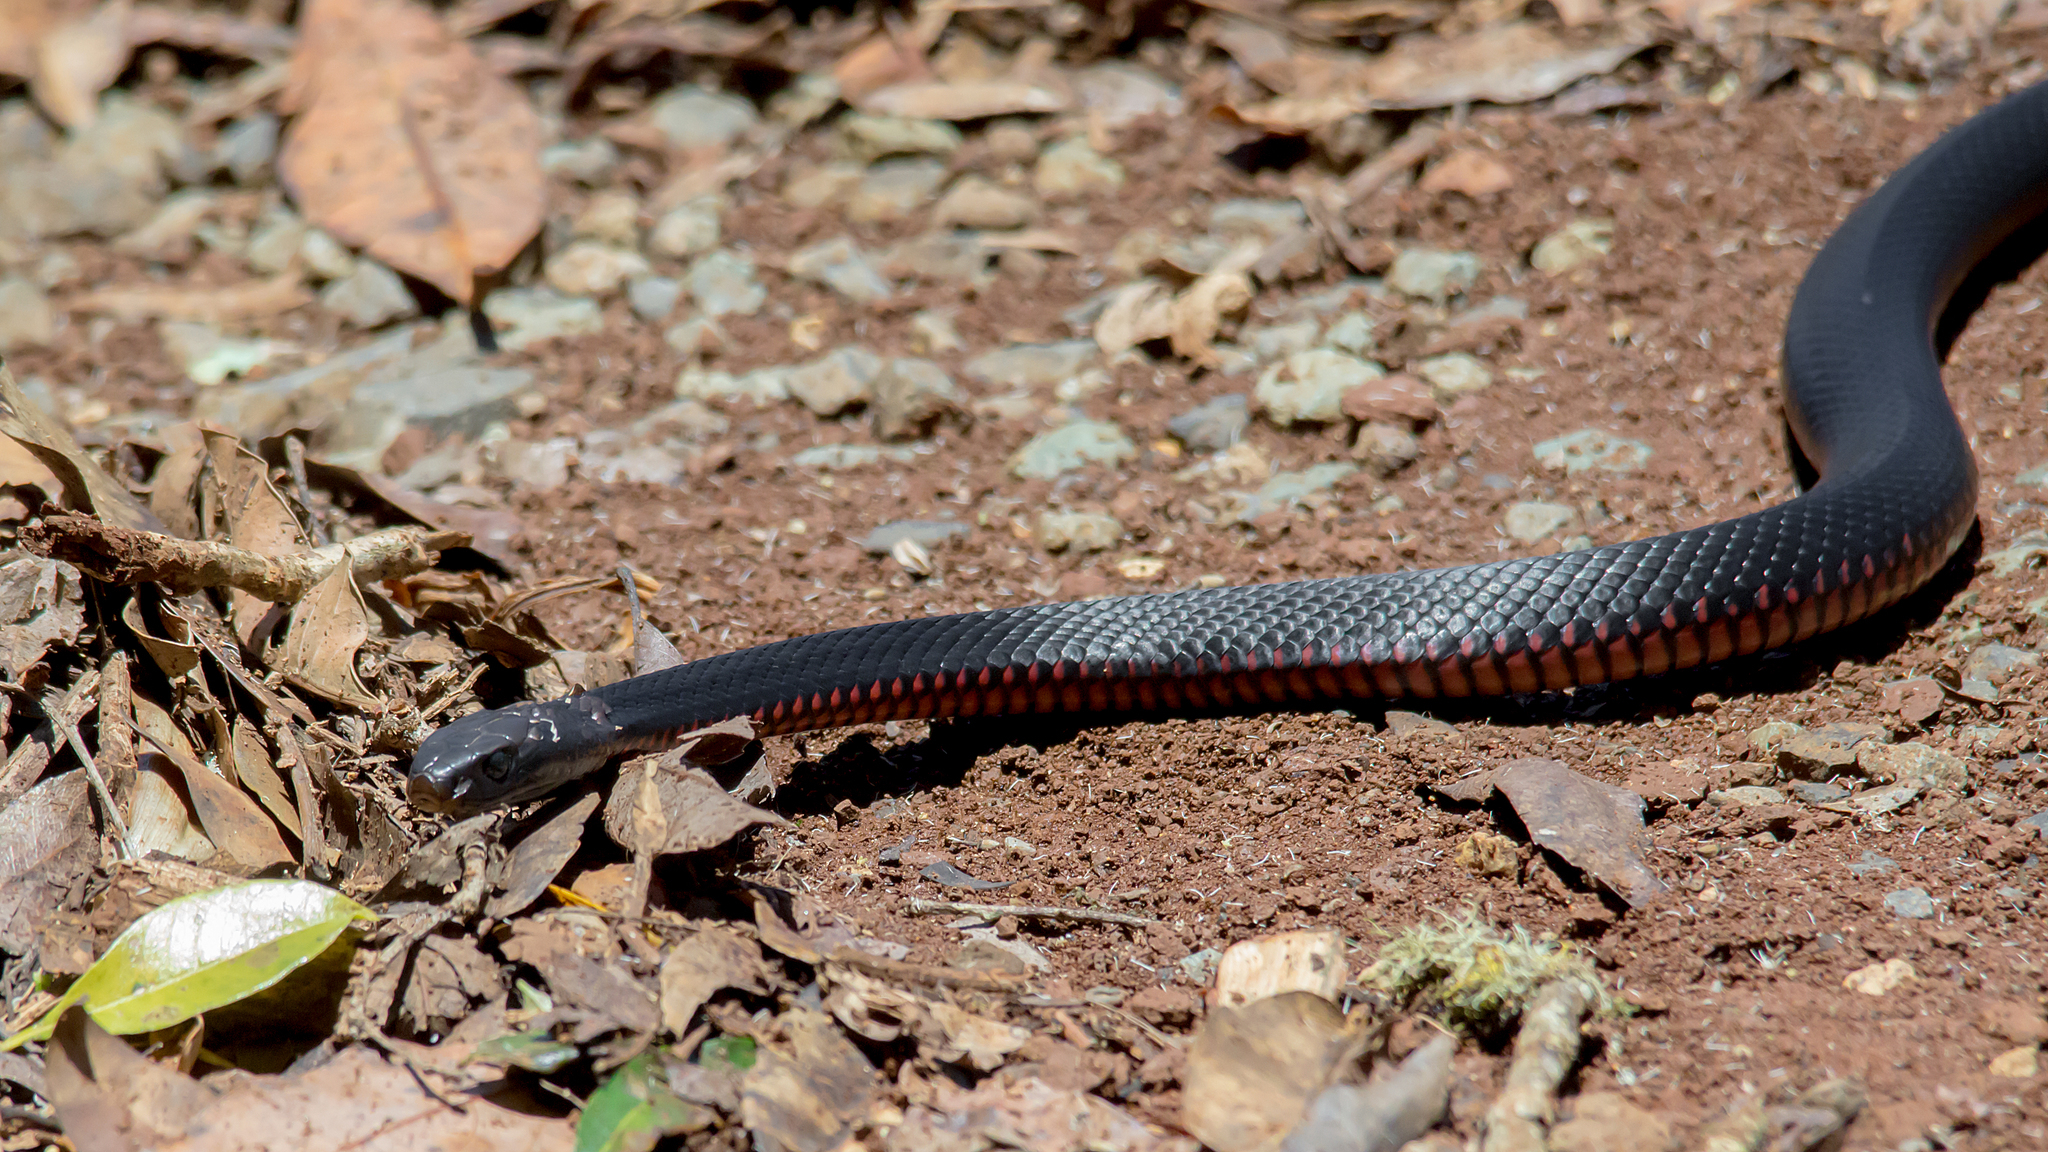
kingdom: Animalia
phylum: Chordata
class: Squamata
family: Elapidae
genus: Pseudechis
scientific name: Pseudechis porphyriacus
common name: Australian black snake
